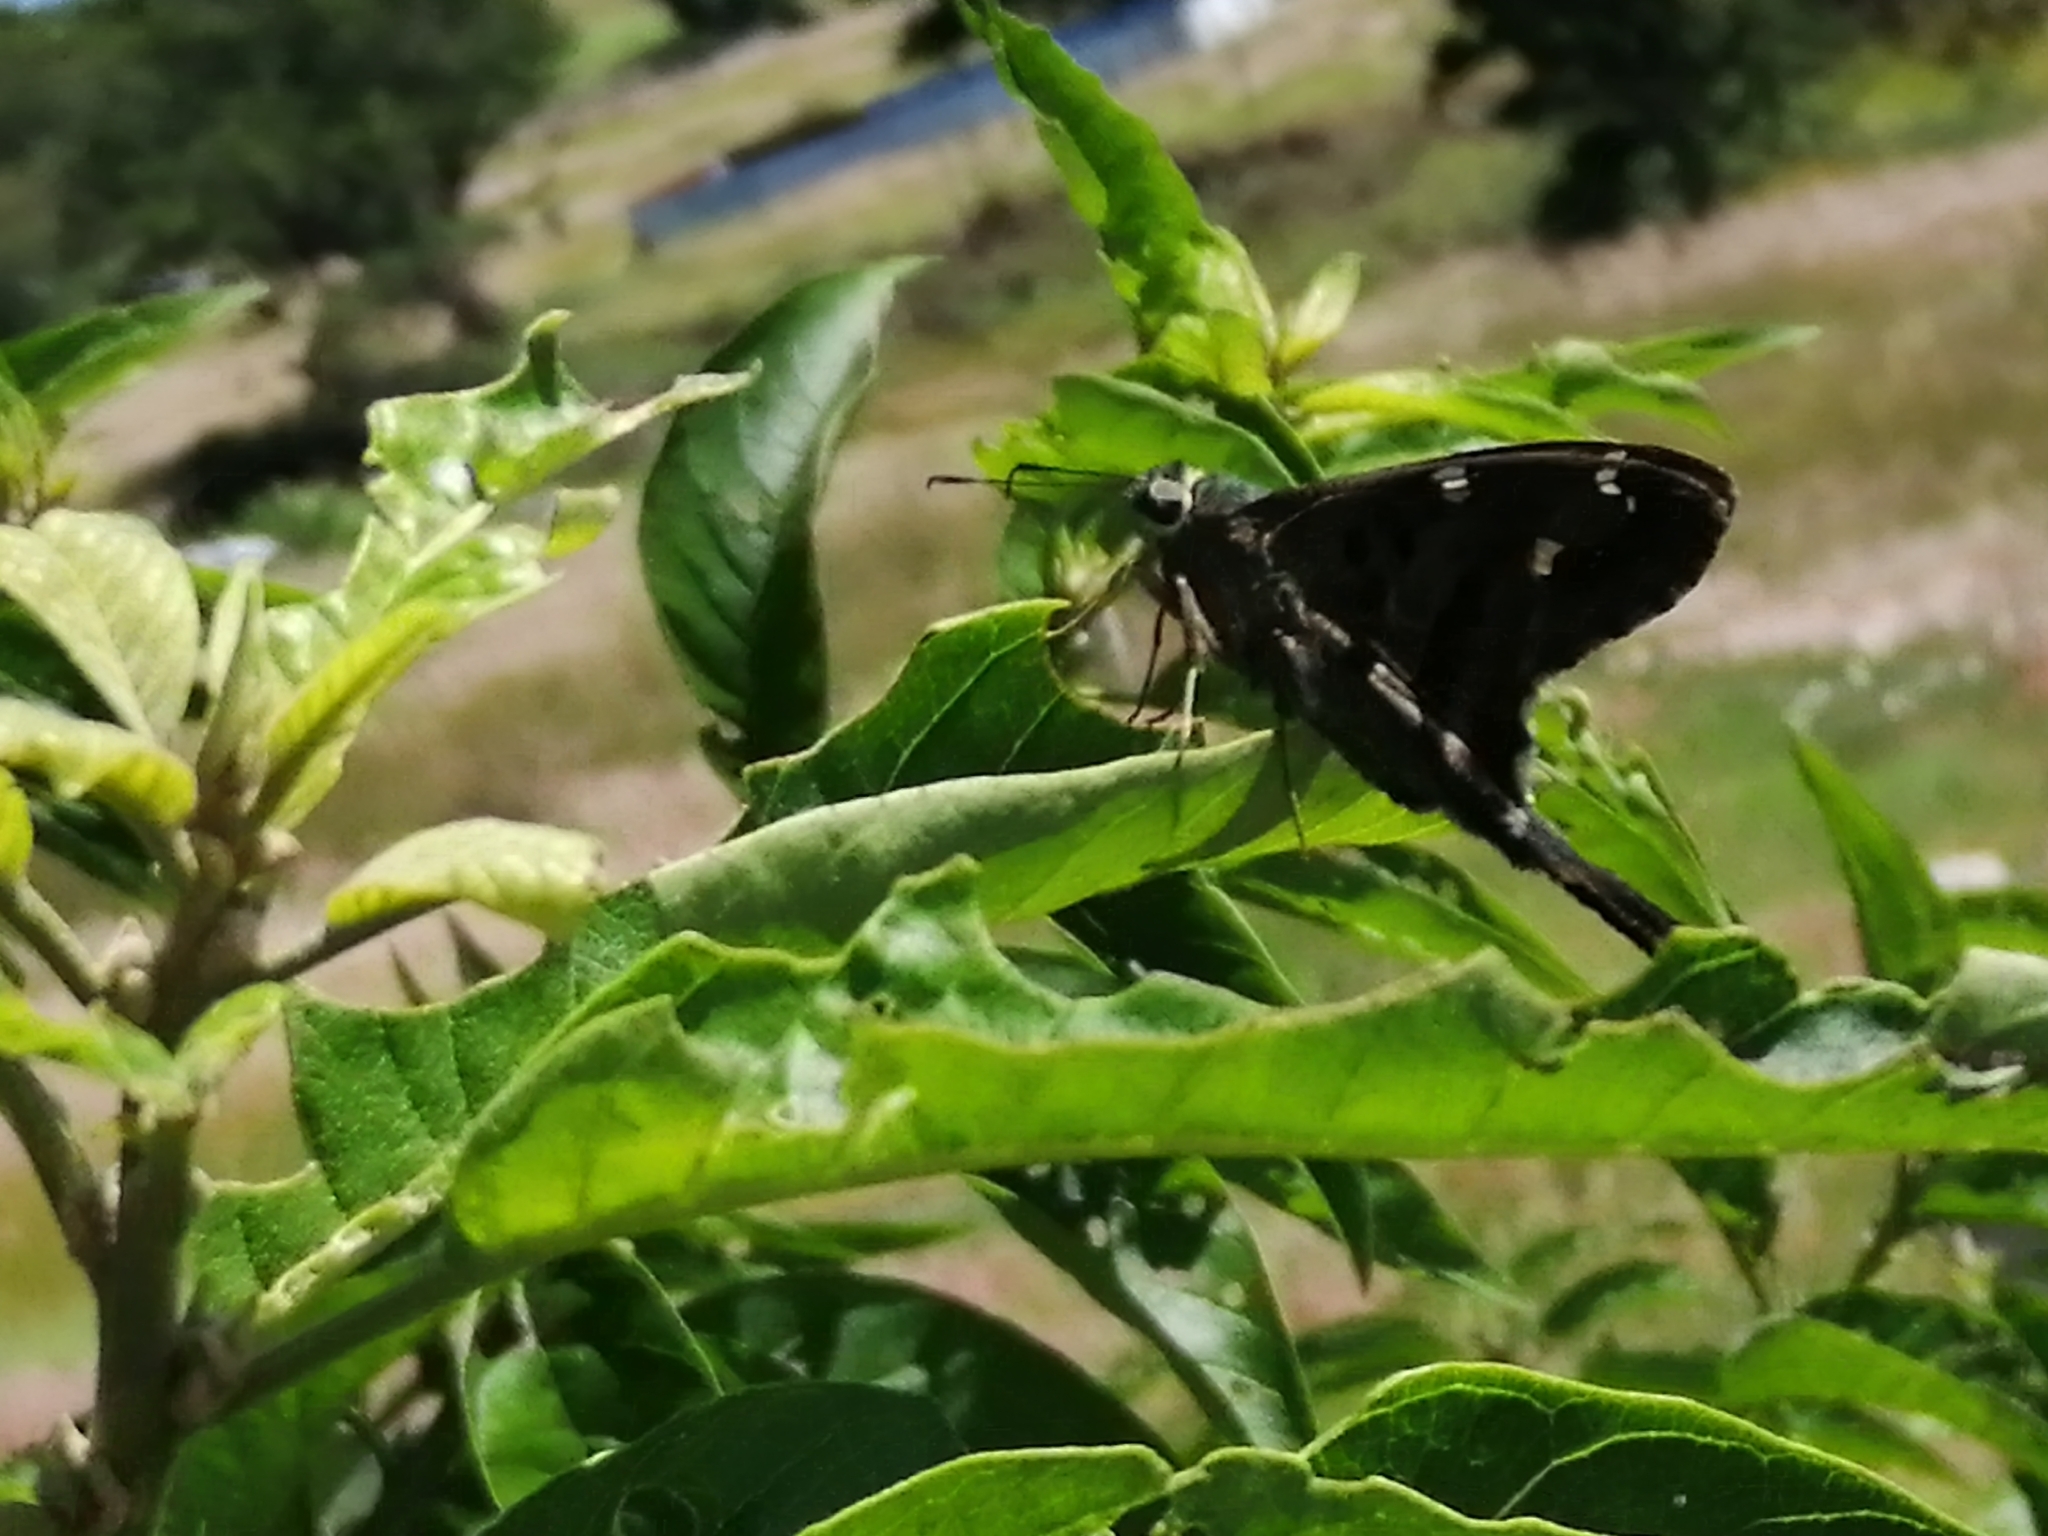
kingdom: Animalia
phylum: Arthropoda
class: Insecta
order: Lepidoptera
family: Hesperiidae
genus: Thorybes
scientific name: Thorybes
